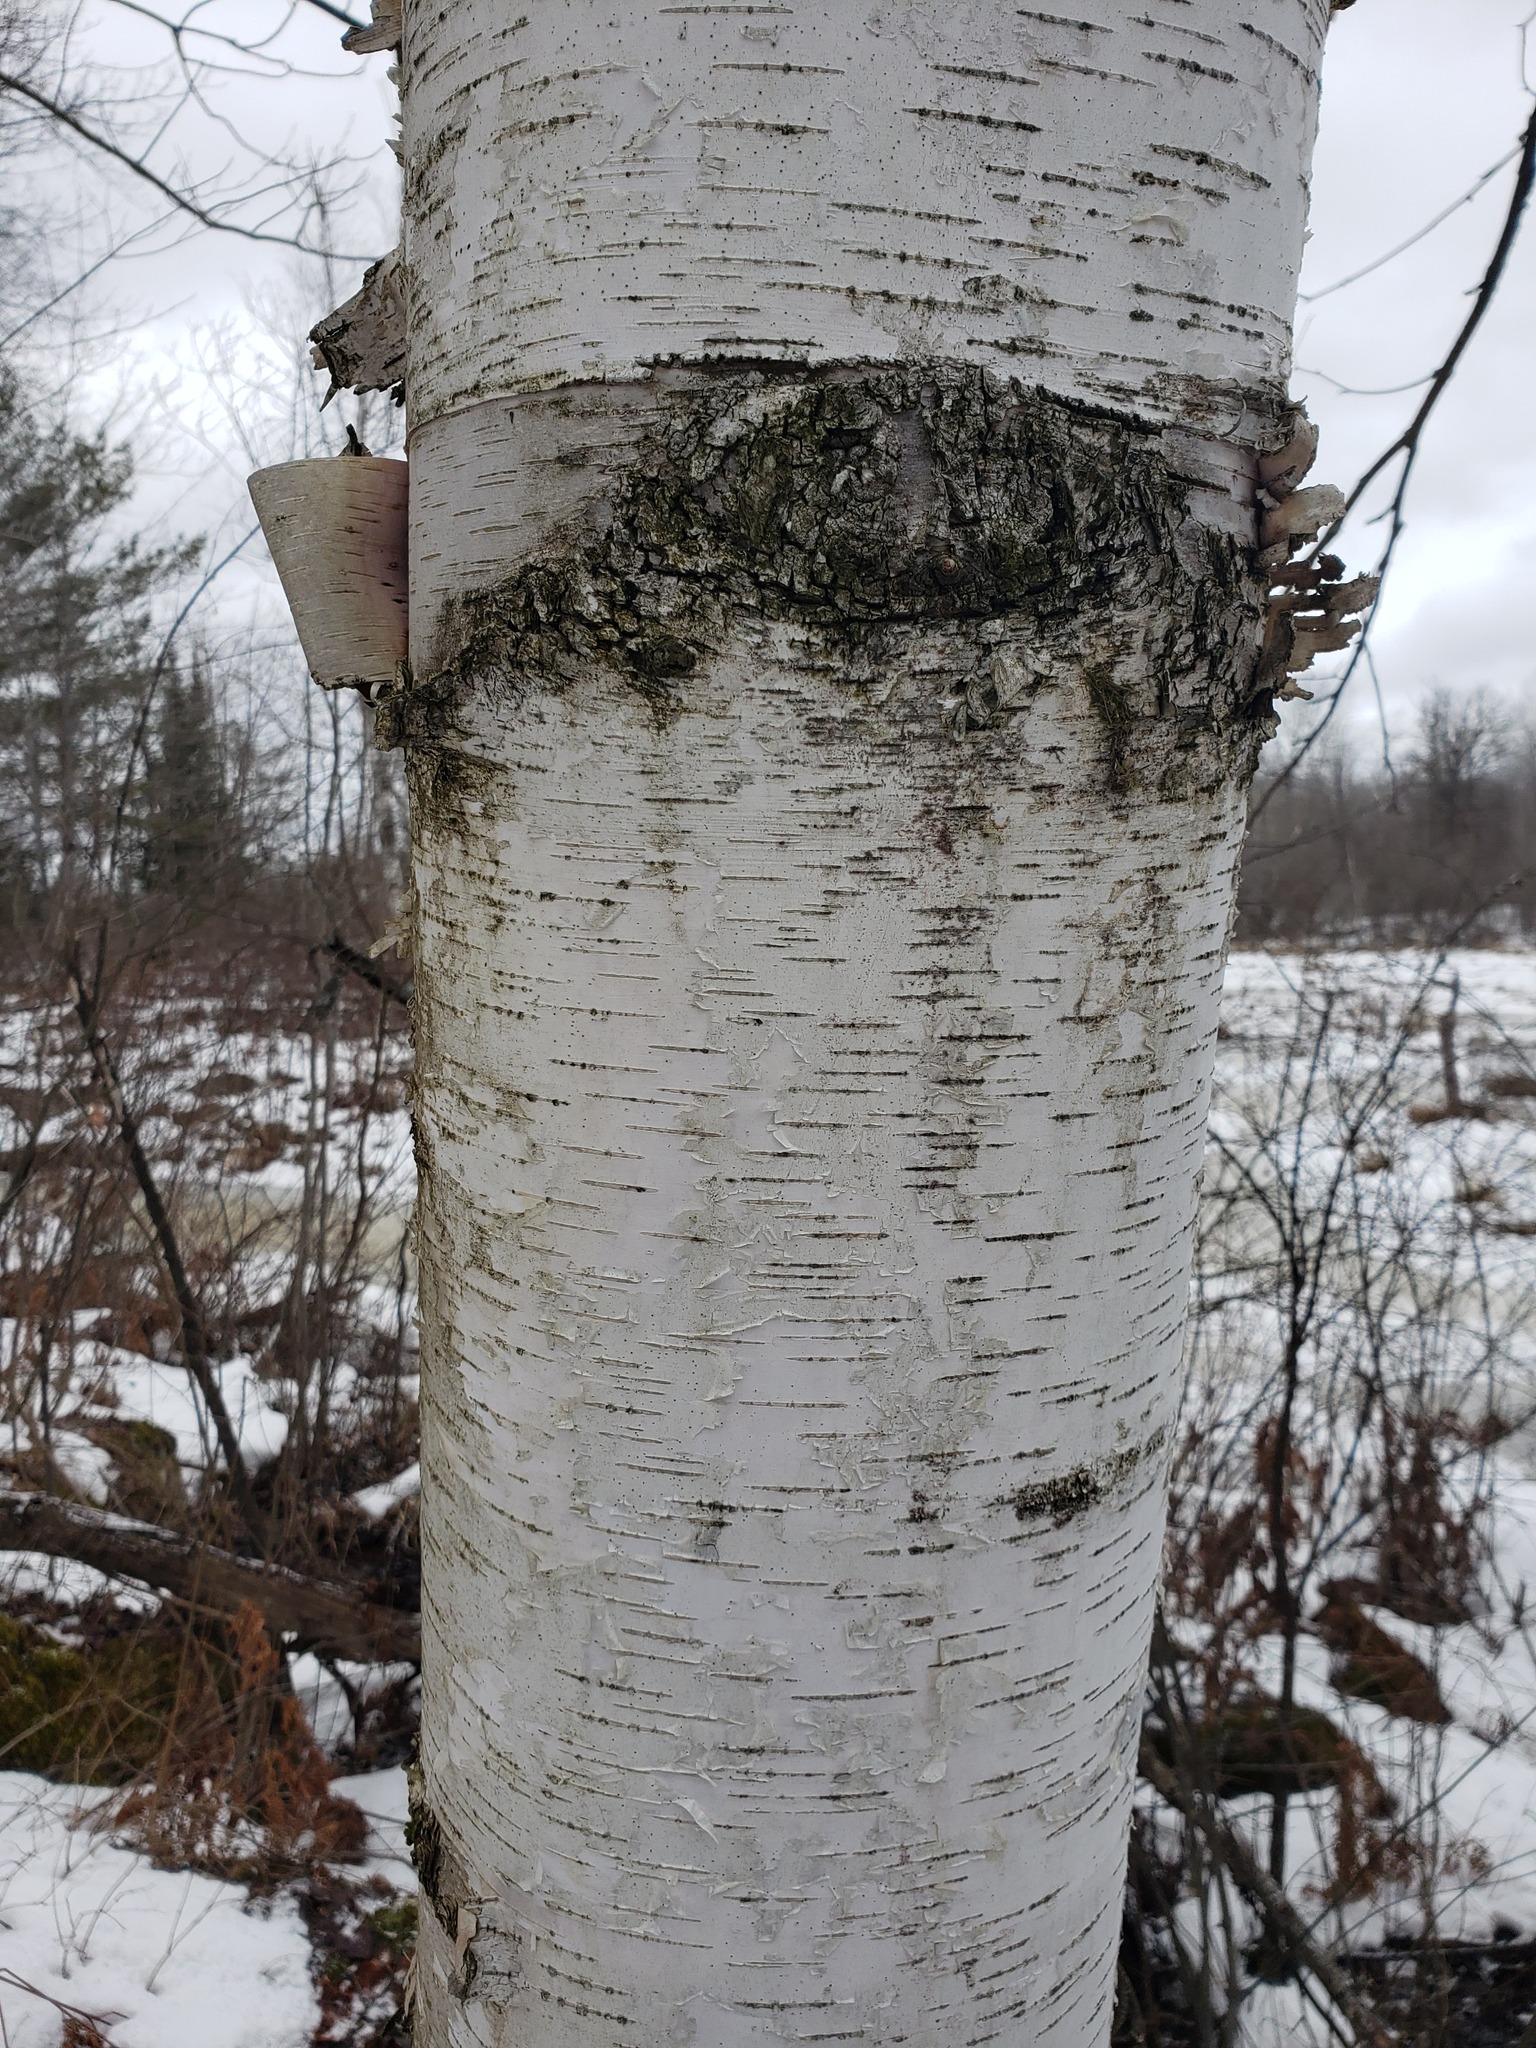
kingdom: Plantae
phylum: Tracheophyta
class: Magnoliopsida
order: Fagales
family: Betulaceae
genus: Betula
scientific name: Betula papyrifera
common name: Paper birch
